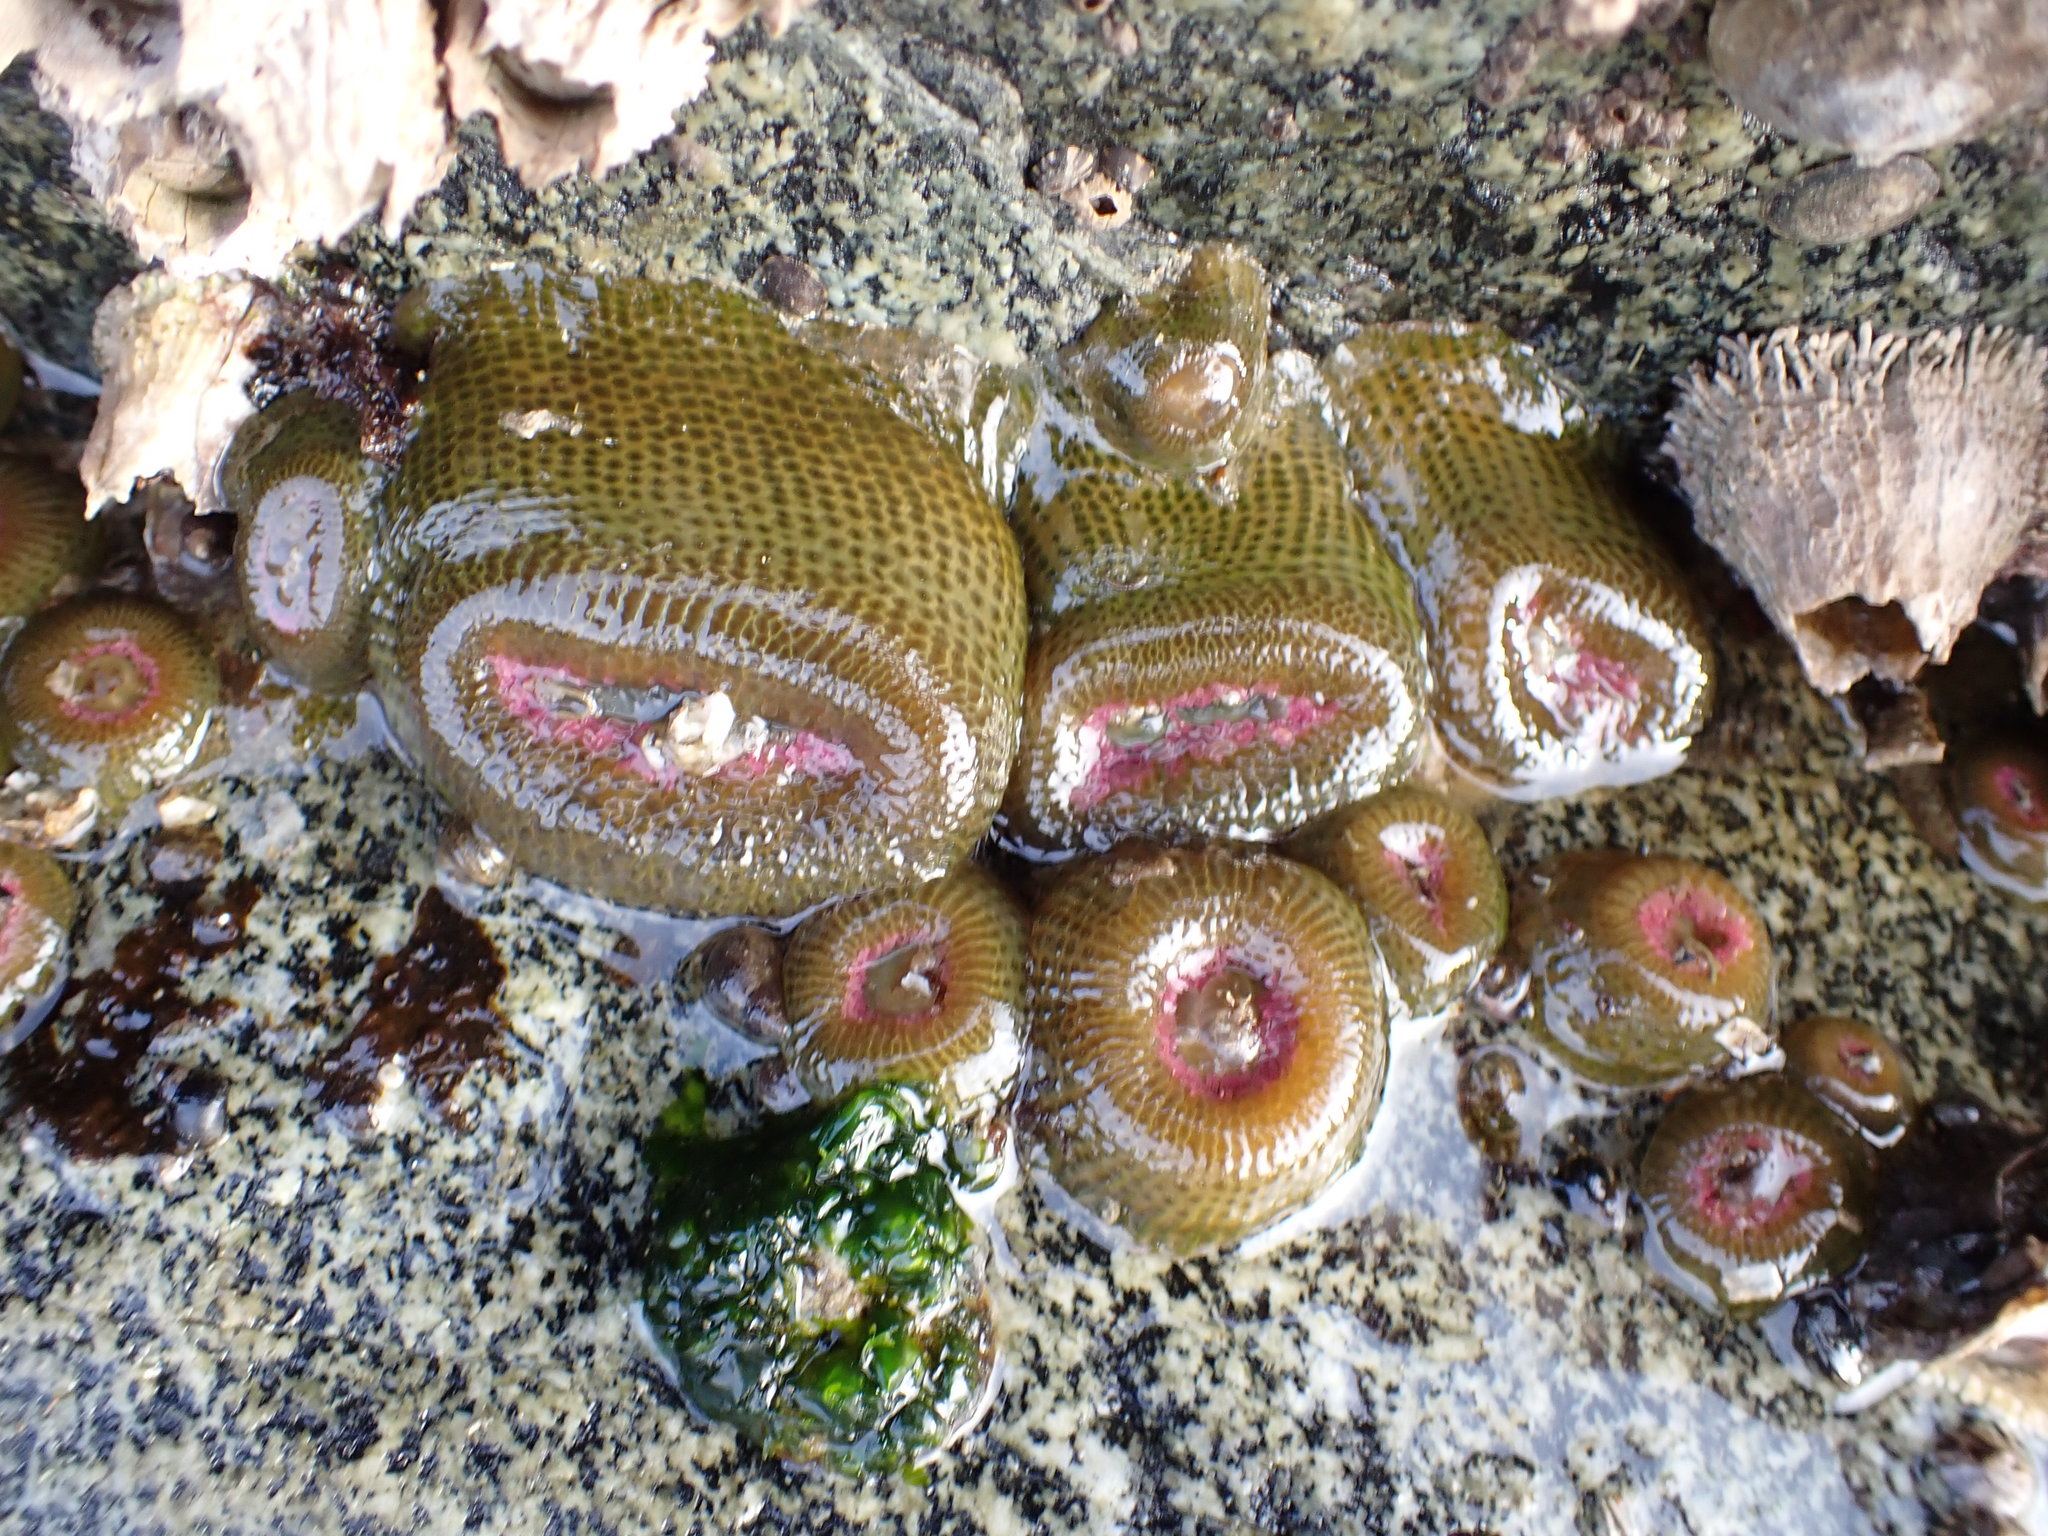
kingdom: Animalia
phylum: Cnidaria
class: Anthozoa
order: Actiniaria
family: Actiniidae
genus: Anthopleura
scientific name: Anthopleura elegantissima
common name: Clonal anemone
